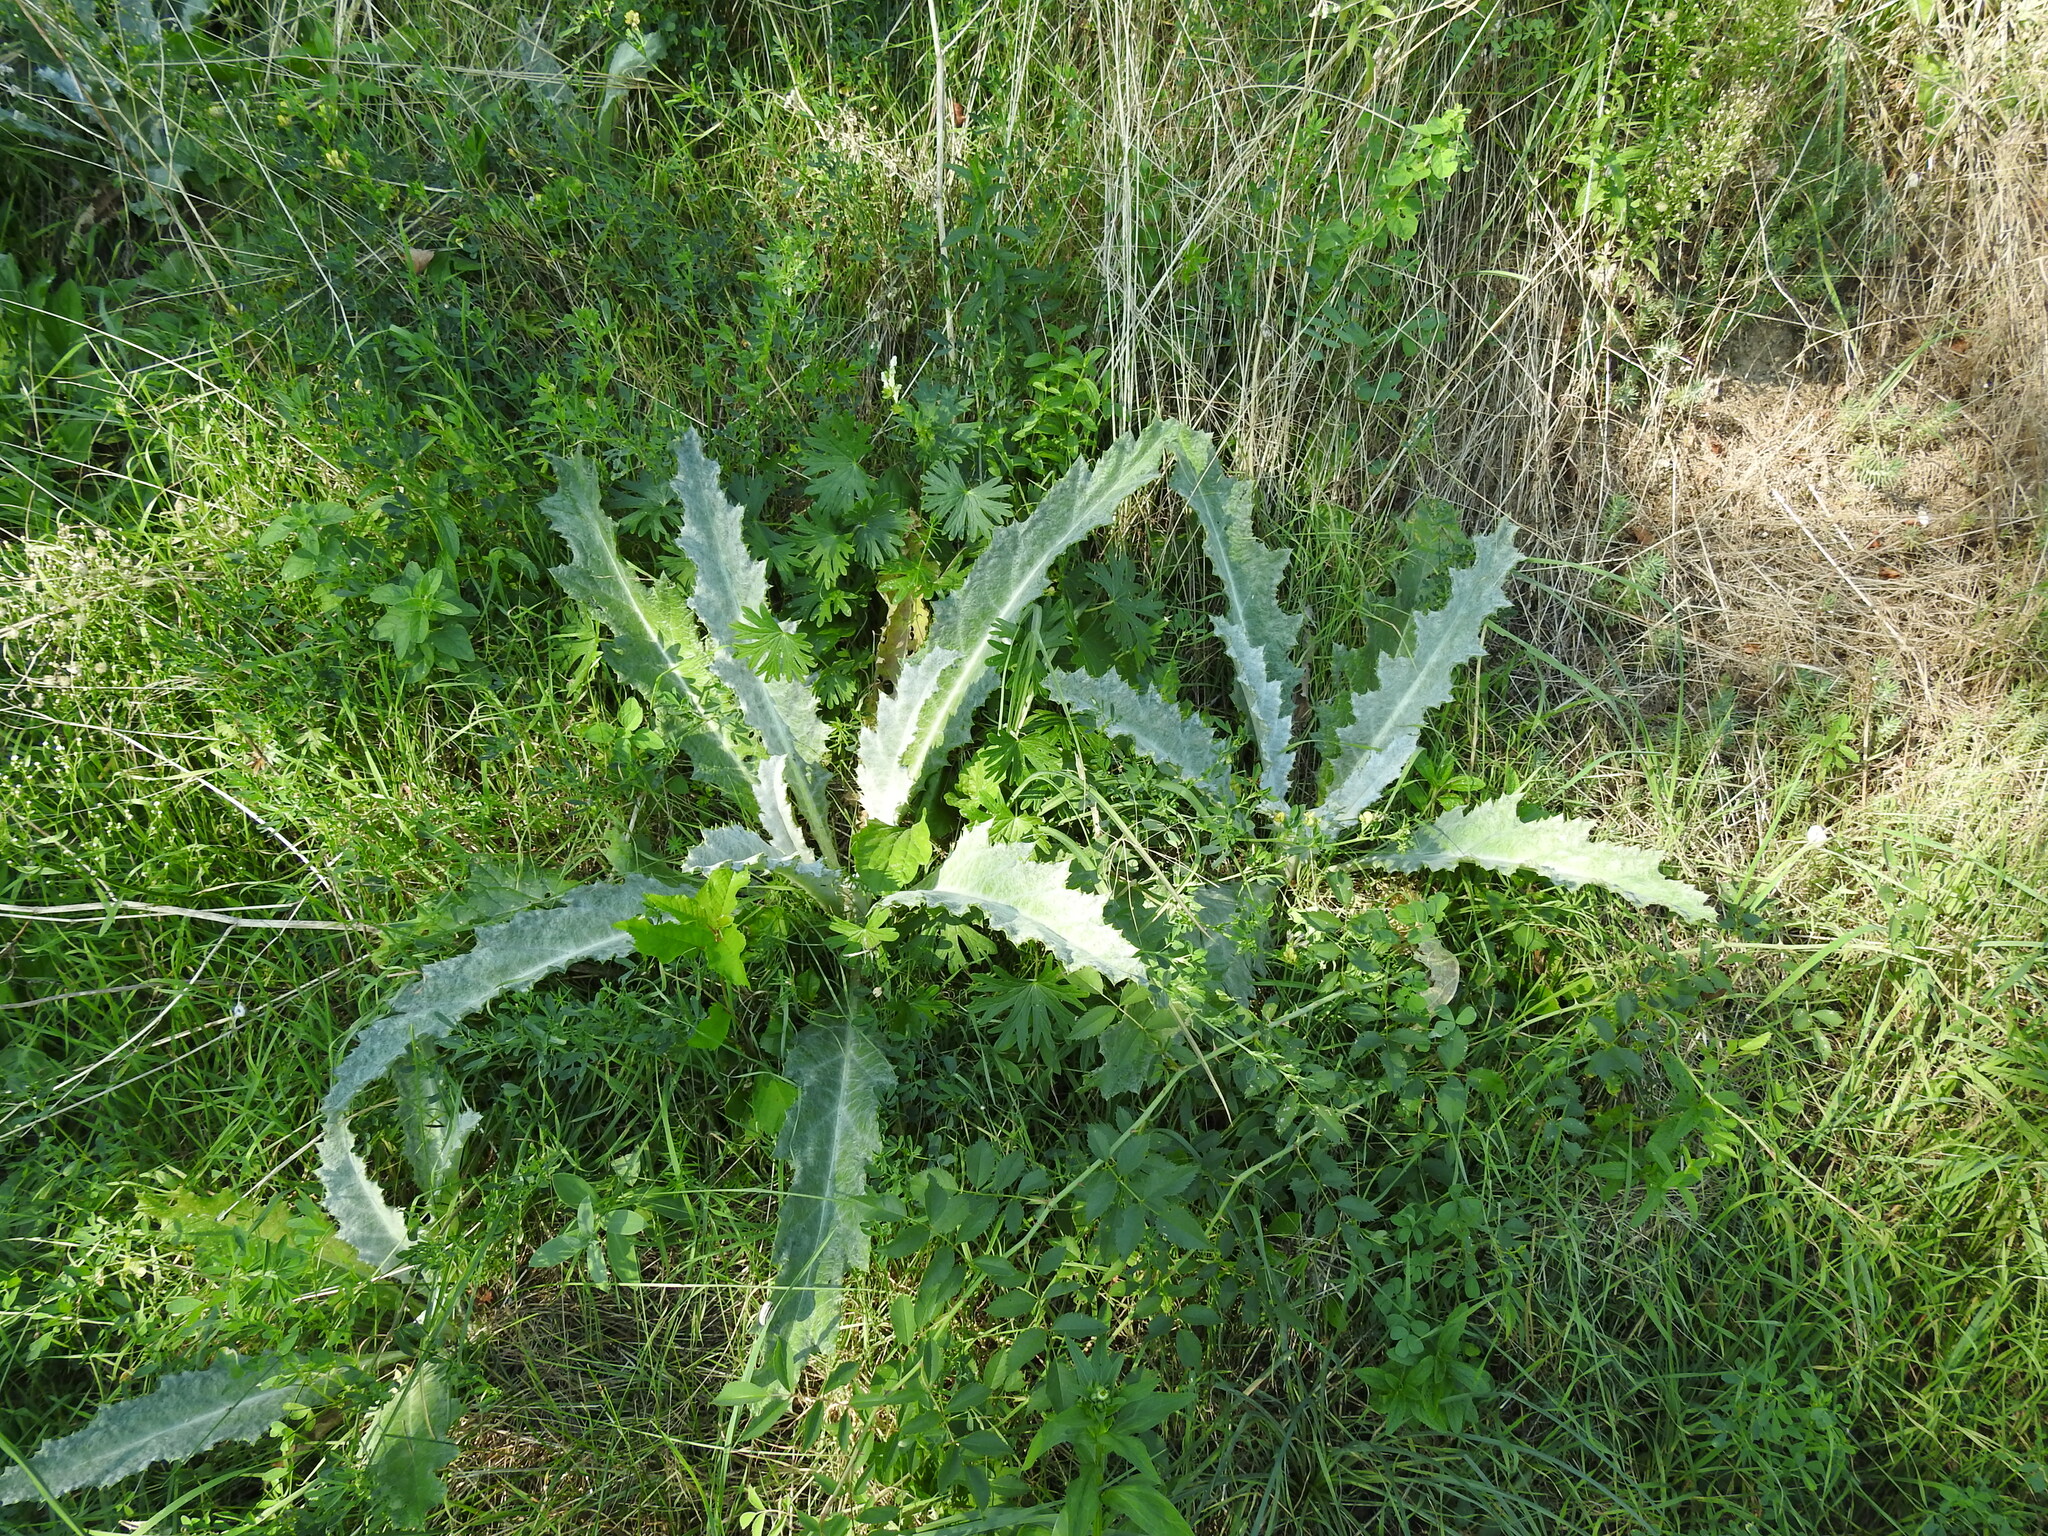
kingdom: Plantae
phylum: Tracheophyta
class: Magnoliopsida
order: Asterales
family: Asteraceae
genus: Onopordum
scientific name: Onopordum acanthium
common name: Scotch thistle
